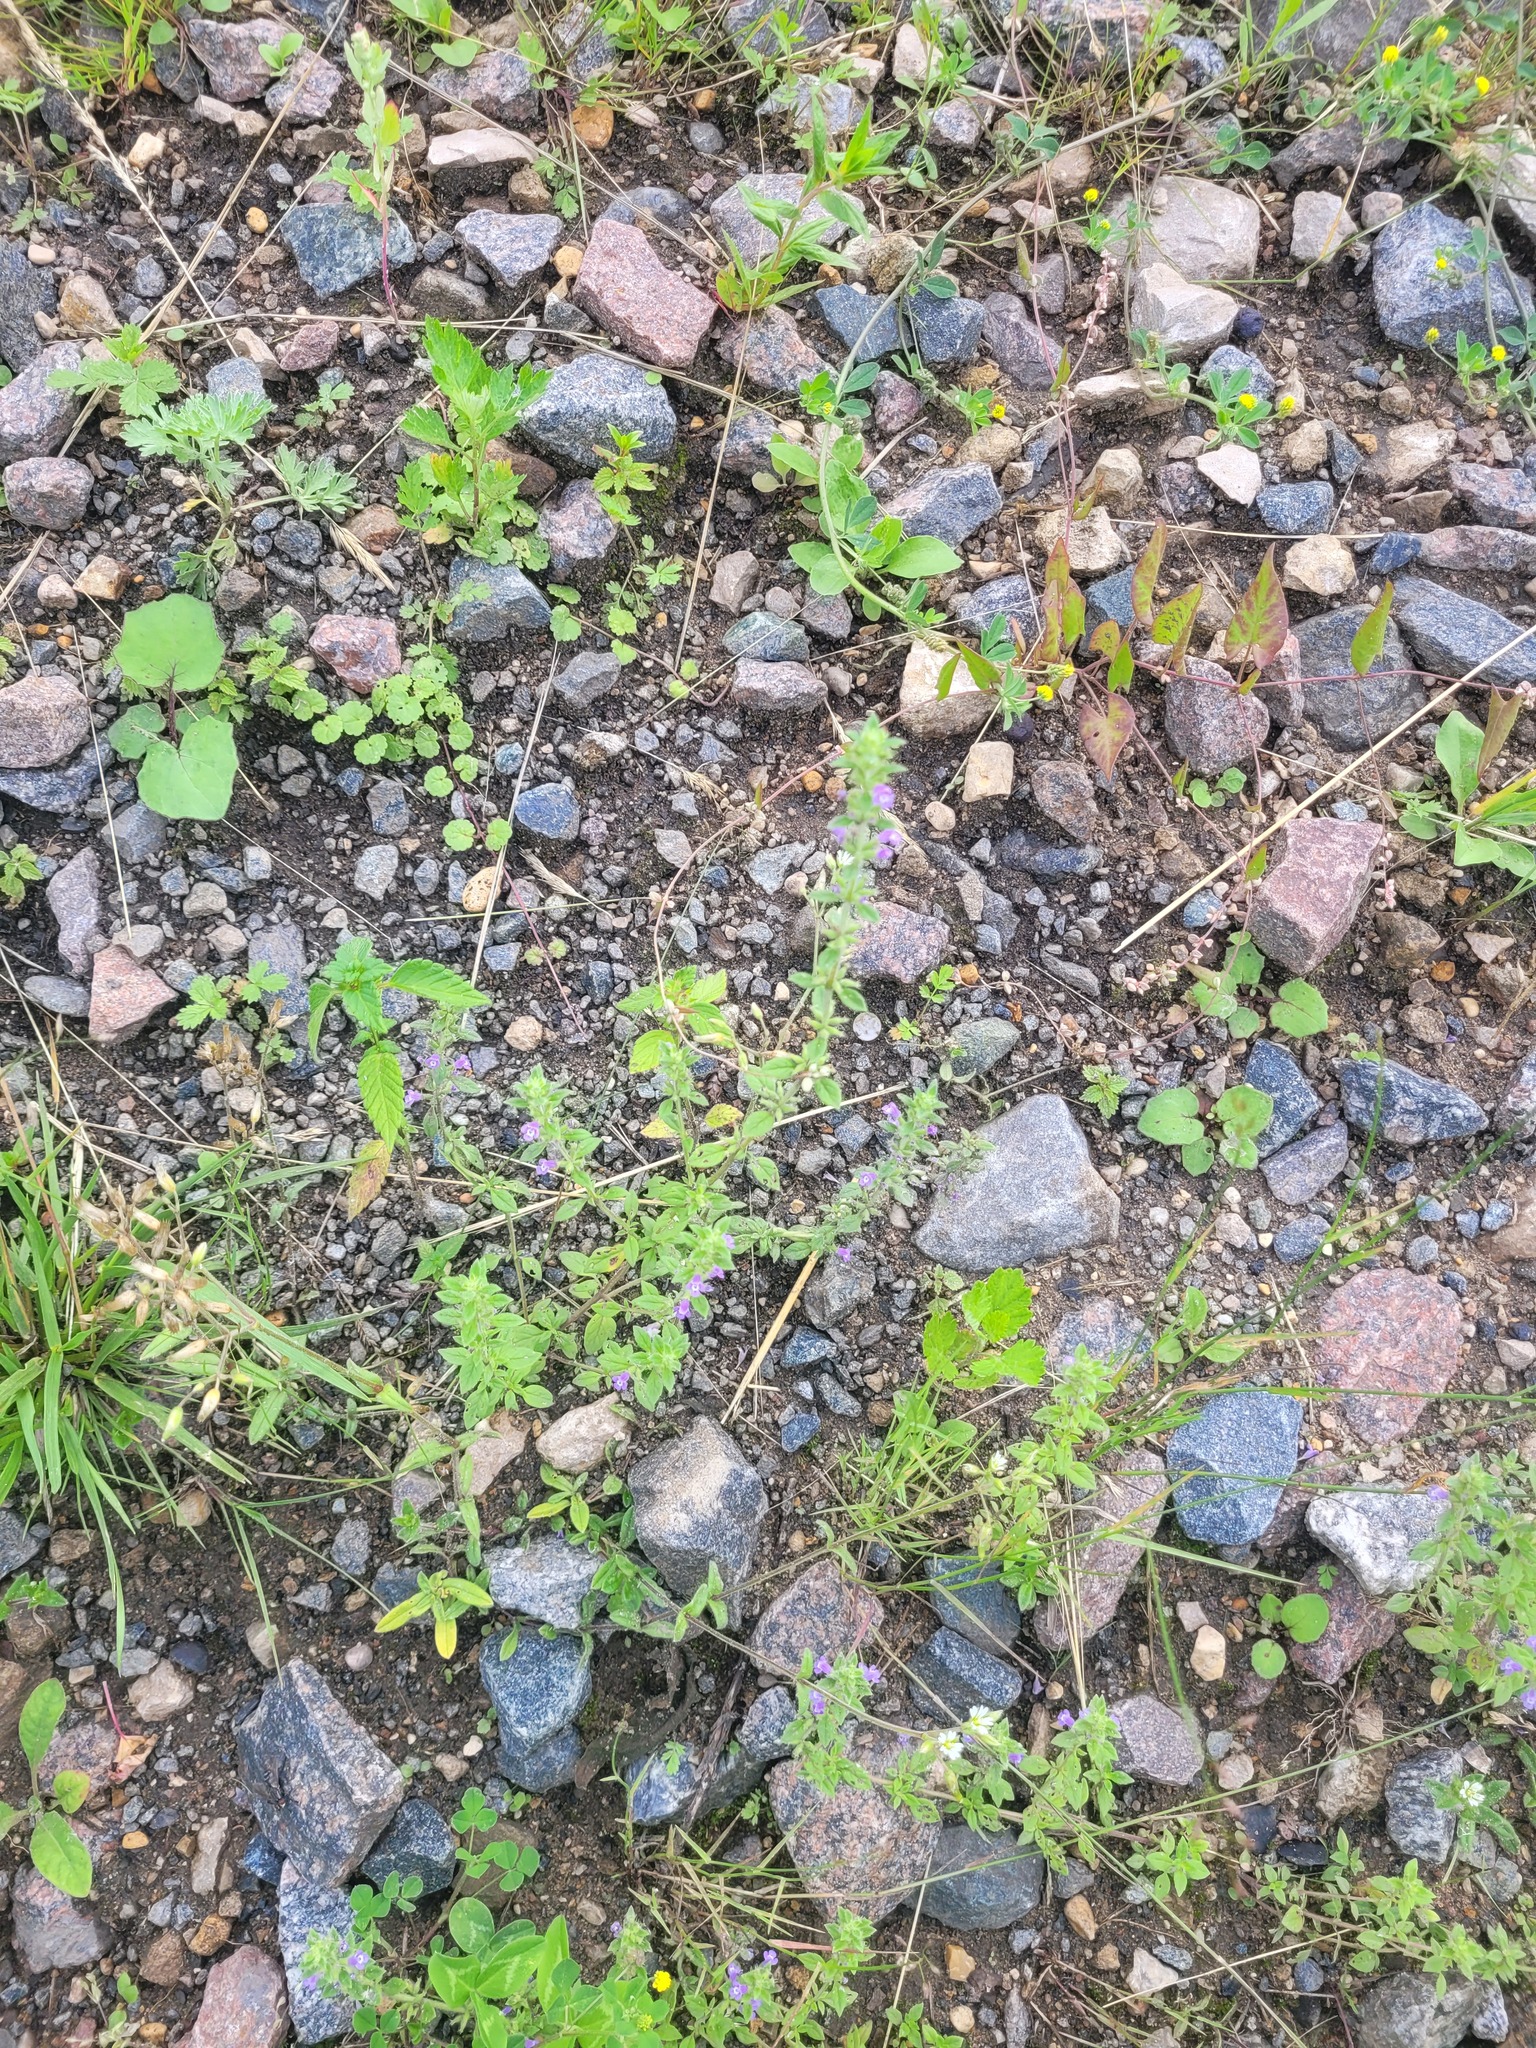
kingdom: Plantae
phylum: Tracheophyta
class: Magnoliopsida
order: Lamiales
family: Lamiaceae
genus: Clinopodium
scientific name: Clinopodium acinos
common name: Basil thyme
